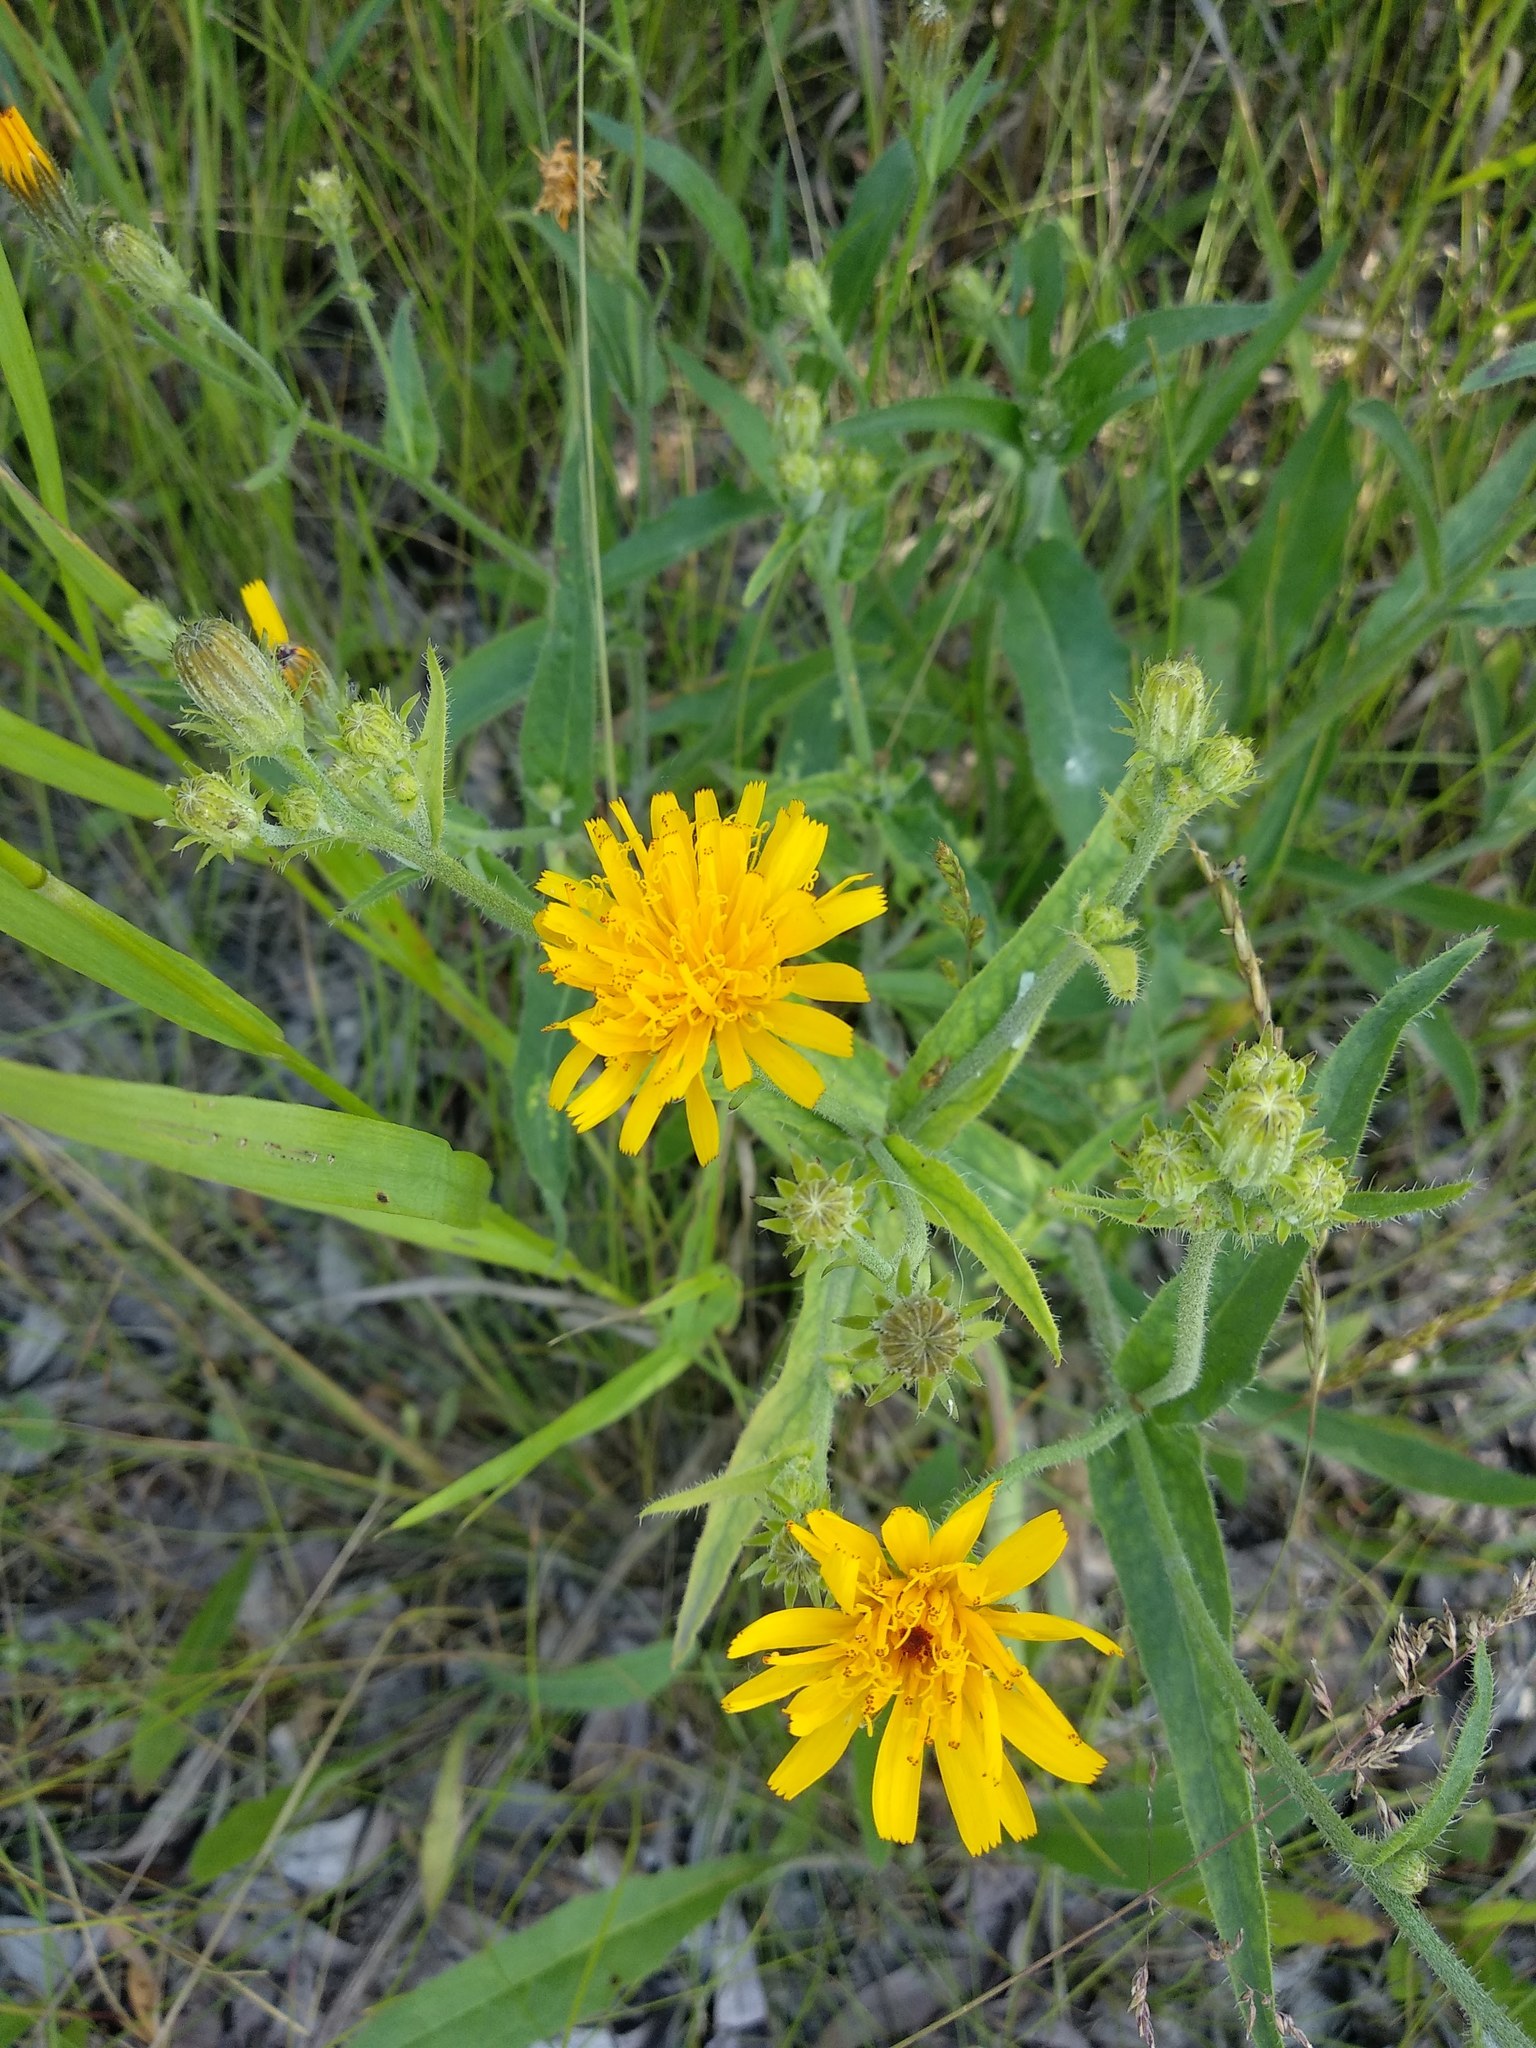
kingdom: Plantae
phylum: Tracheophyta
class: Magnoliopsida
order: Asterales
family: Asteraceae
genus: Picris
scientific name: Picris hieracioides
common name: Hawkweed oxtongue
